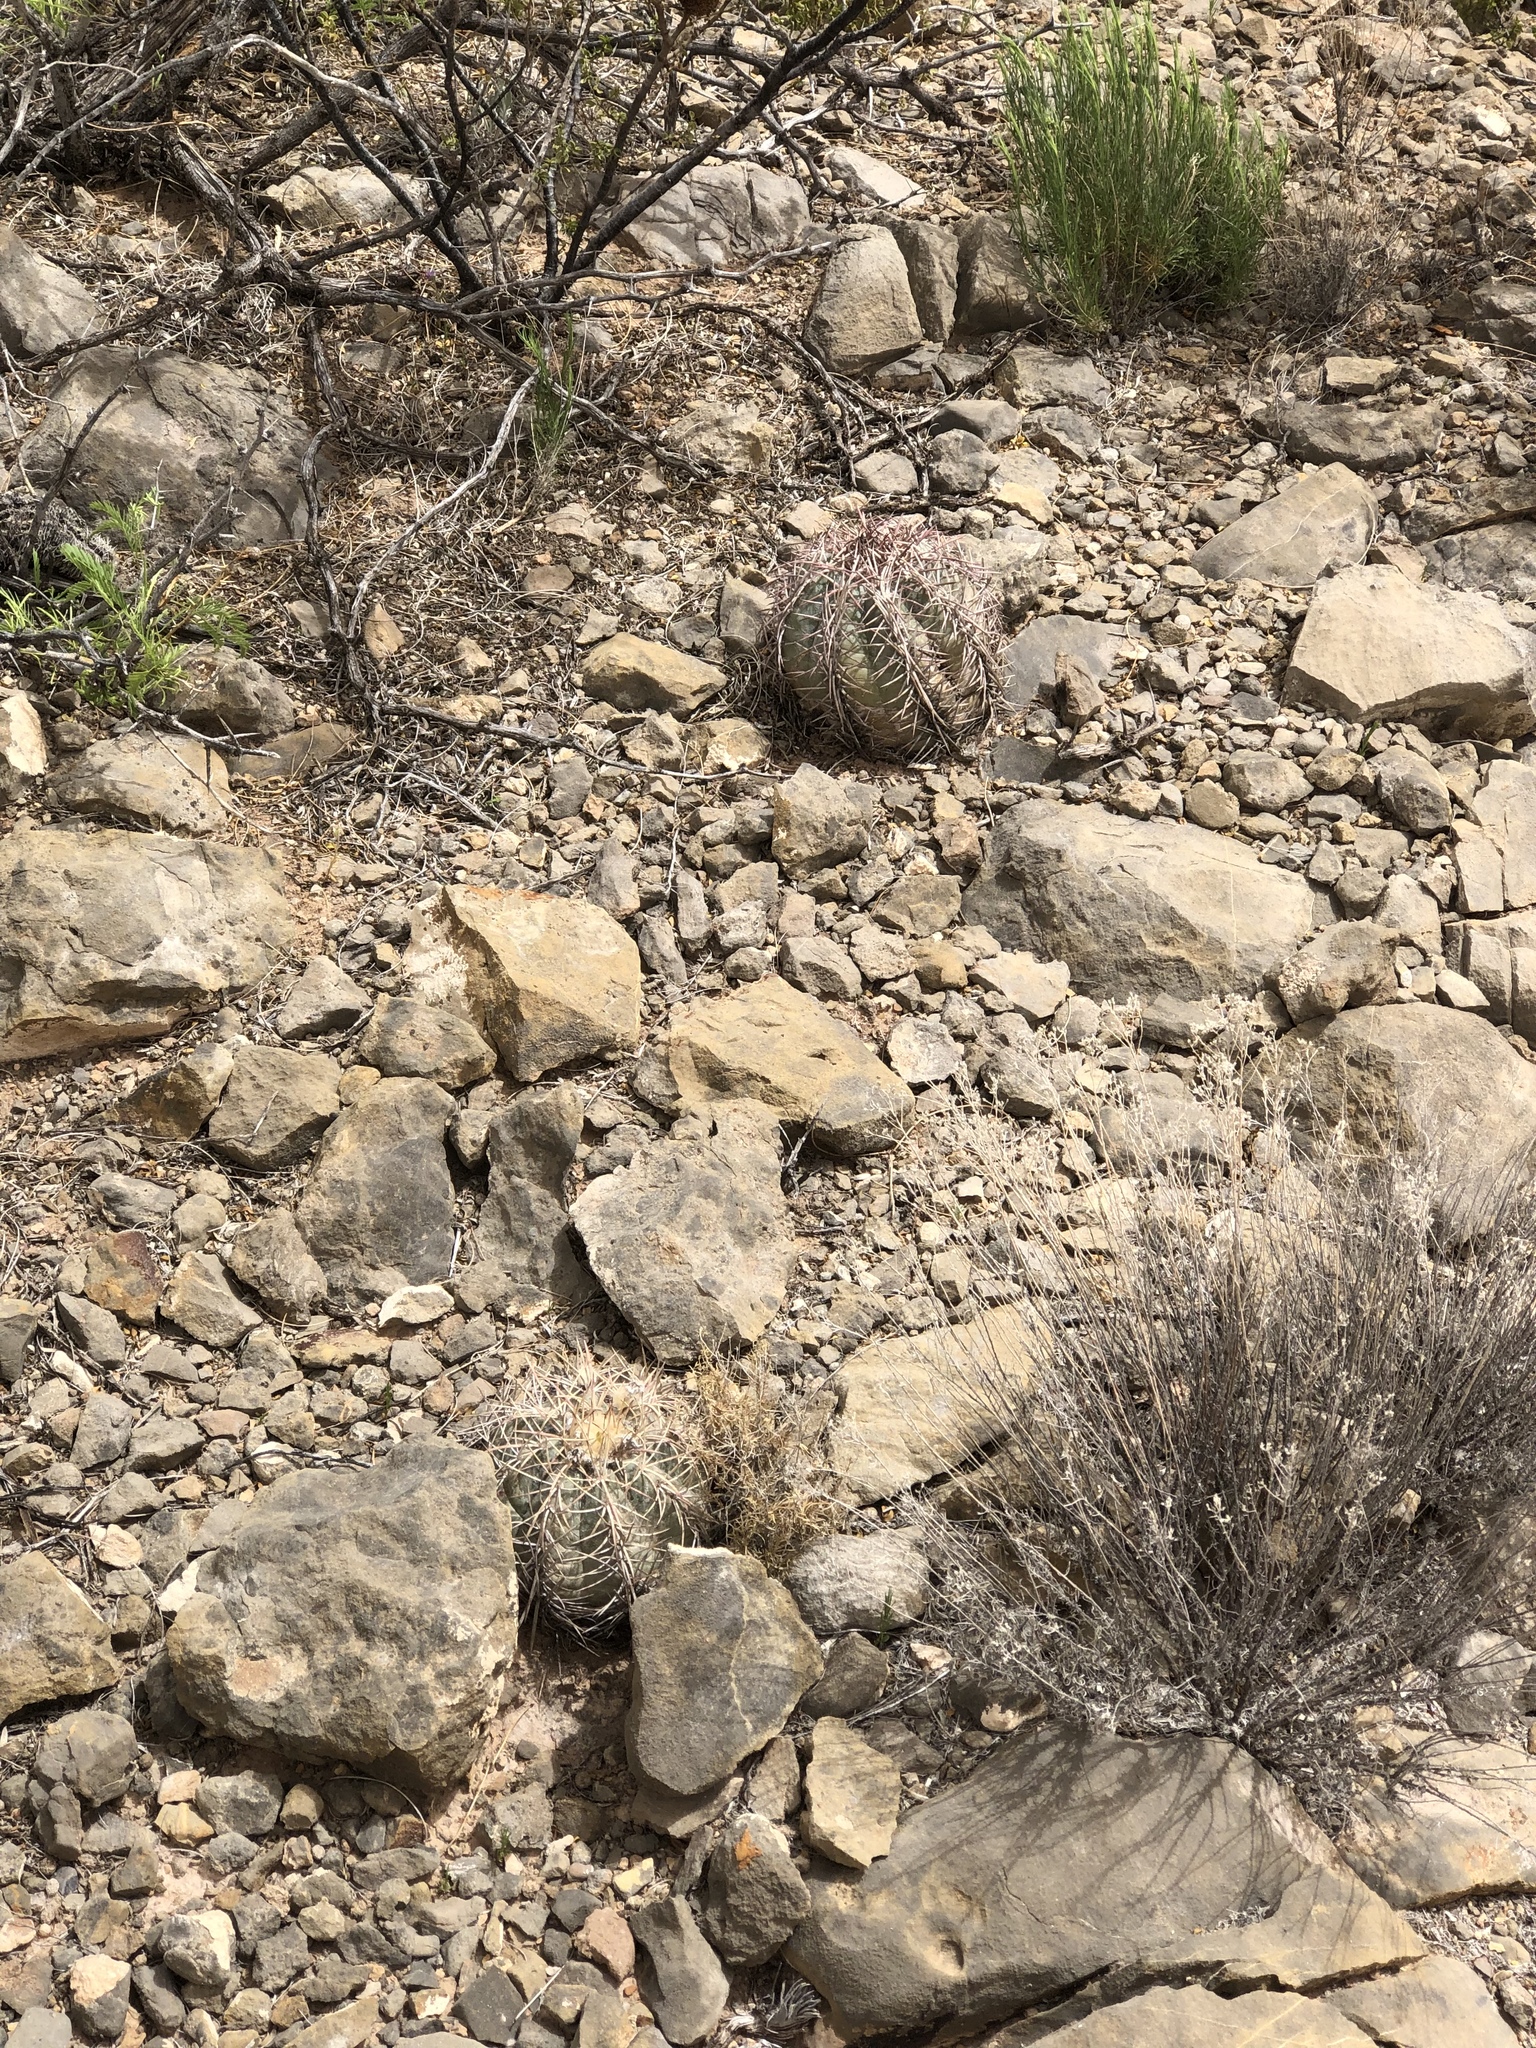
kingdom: Plantae
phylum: Tracheophyta
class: Magnoliopsida
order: Caryophyllales
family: Cactaceae
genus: Echinocactus
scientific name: Echinocactus horizonthalonius
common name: Devilshead
